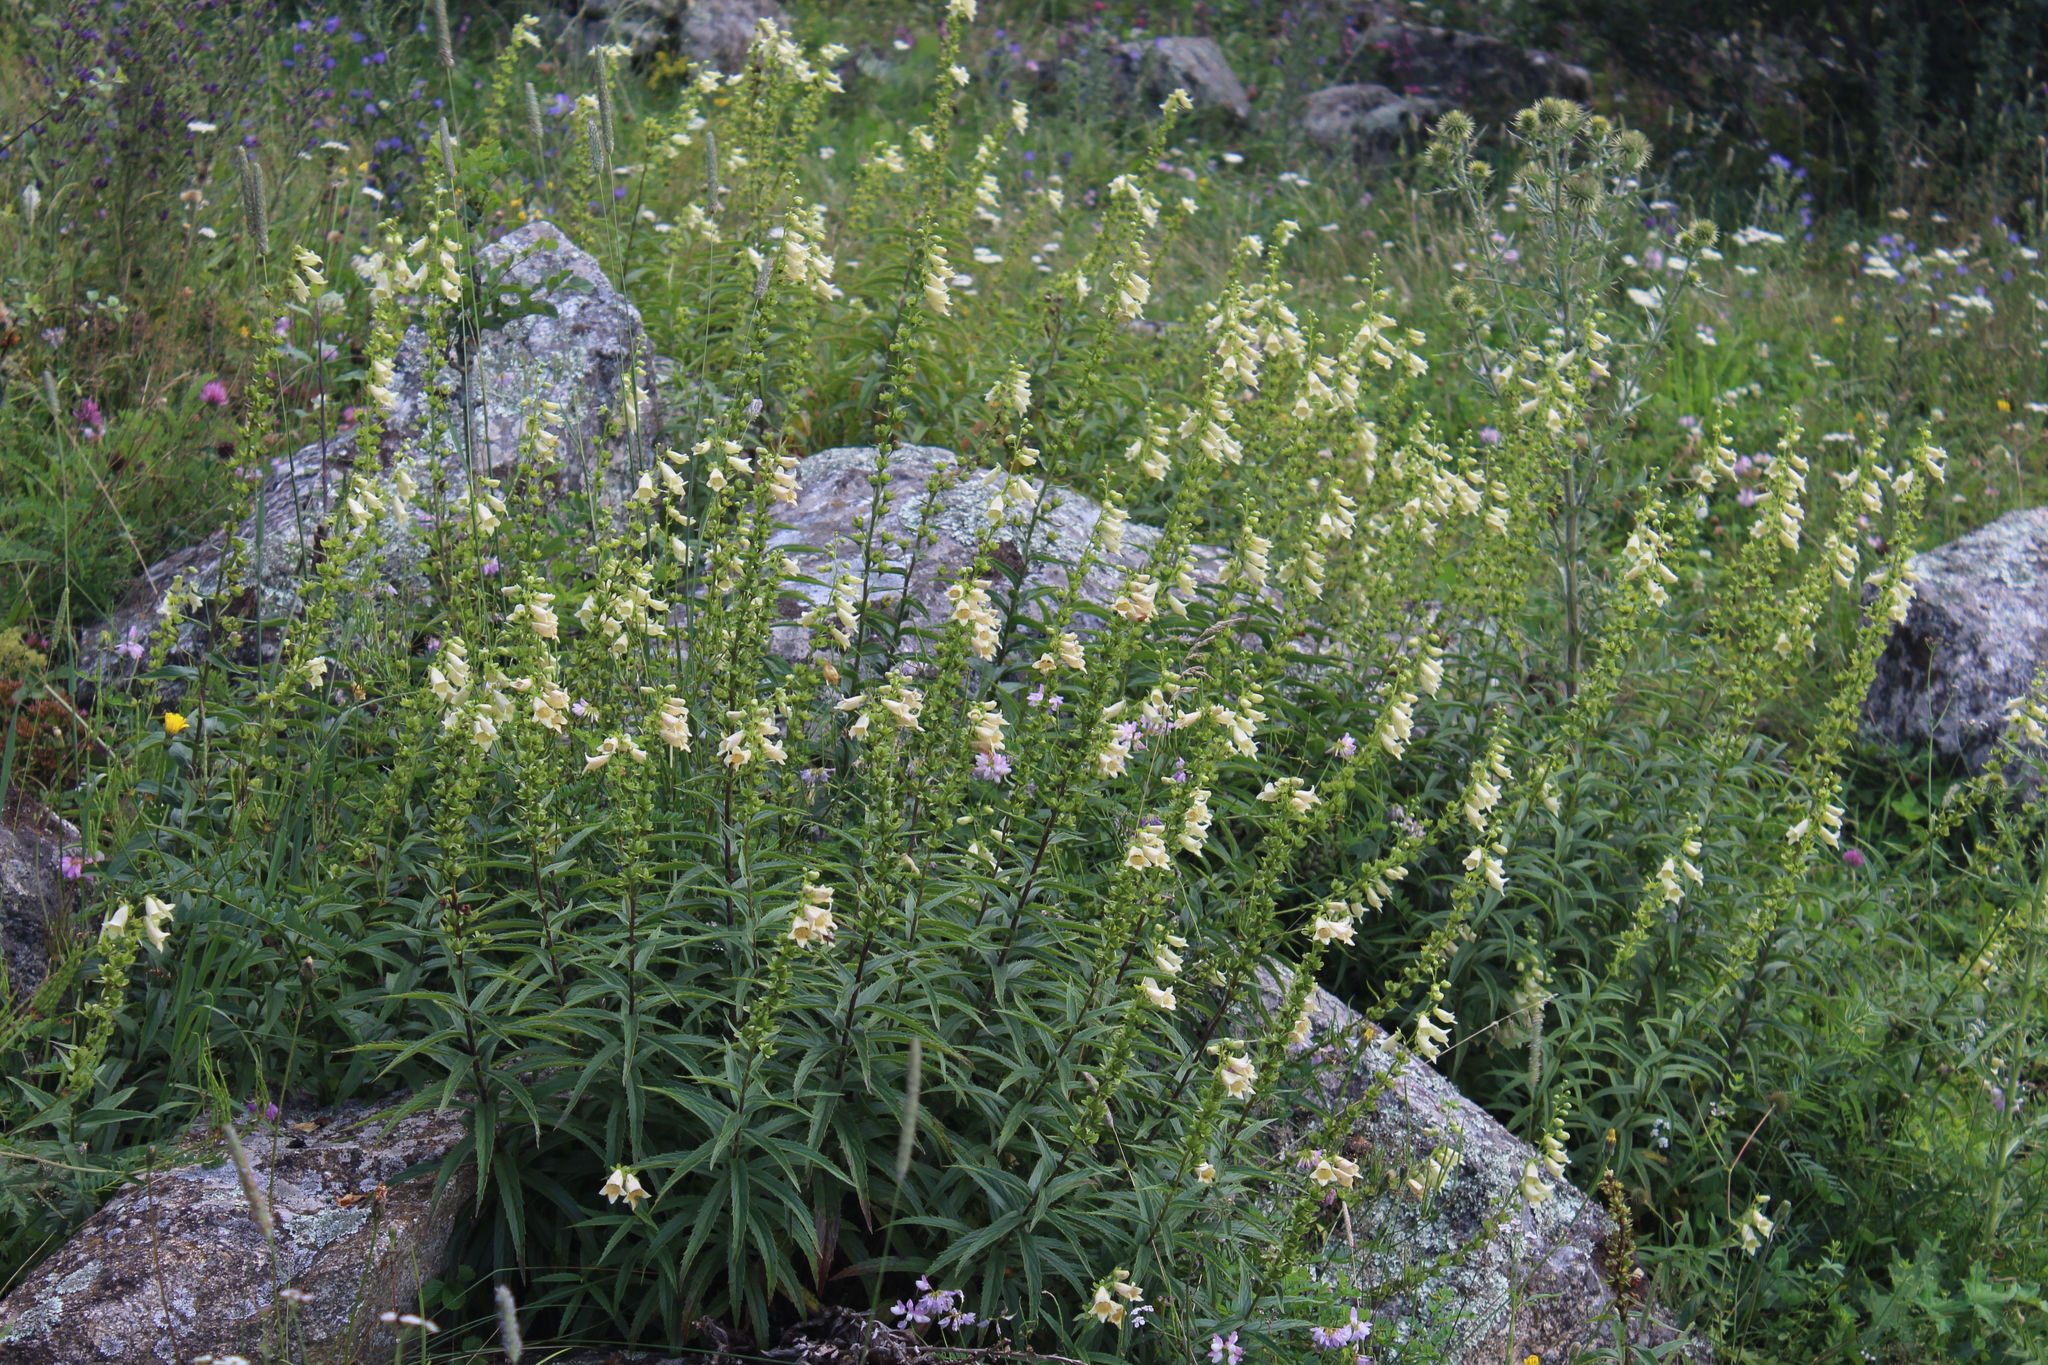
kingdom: Plantae
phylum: Tracheophyta
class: Magnoliopsida
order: Lamiales
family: Plantaginaceae
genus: Digitalis
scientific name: Digitalis ciliata
